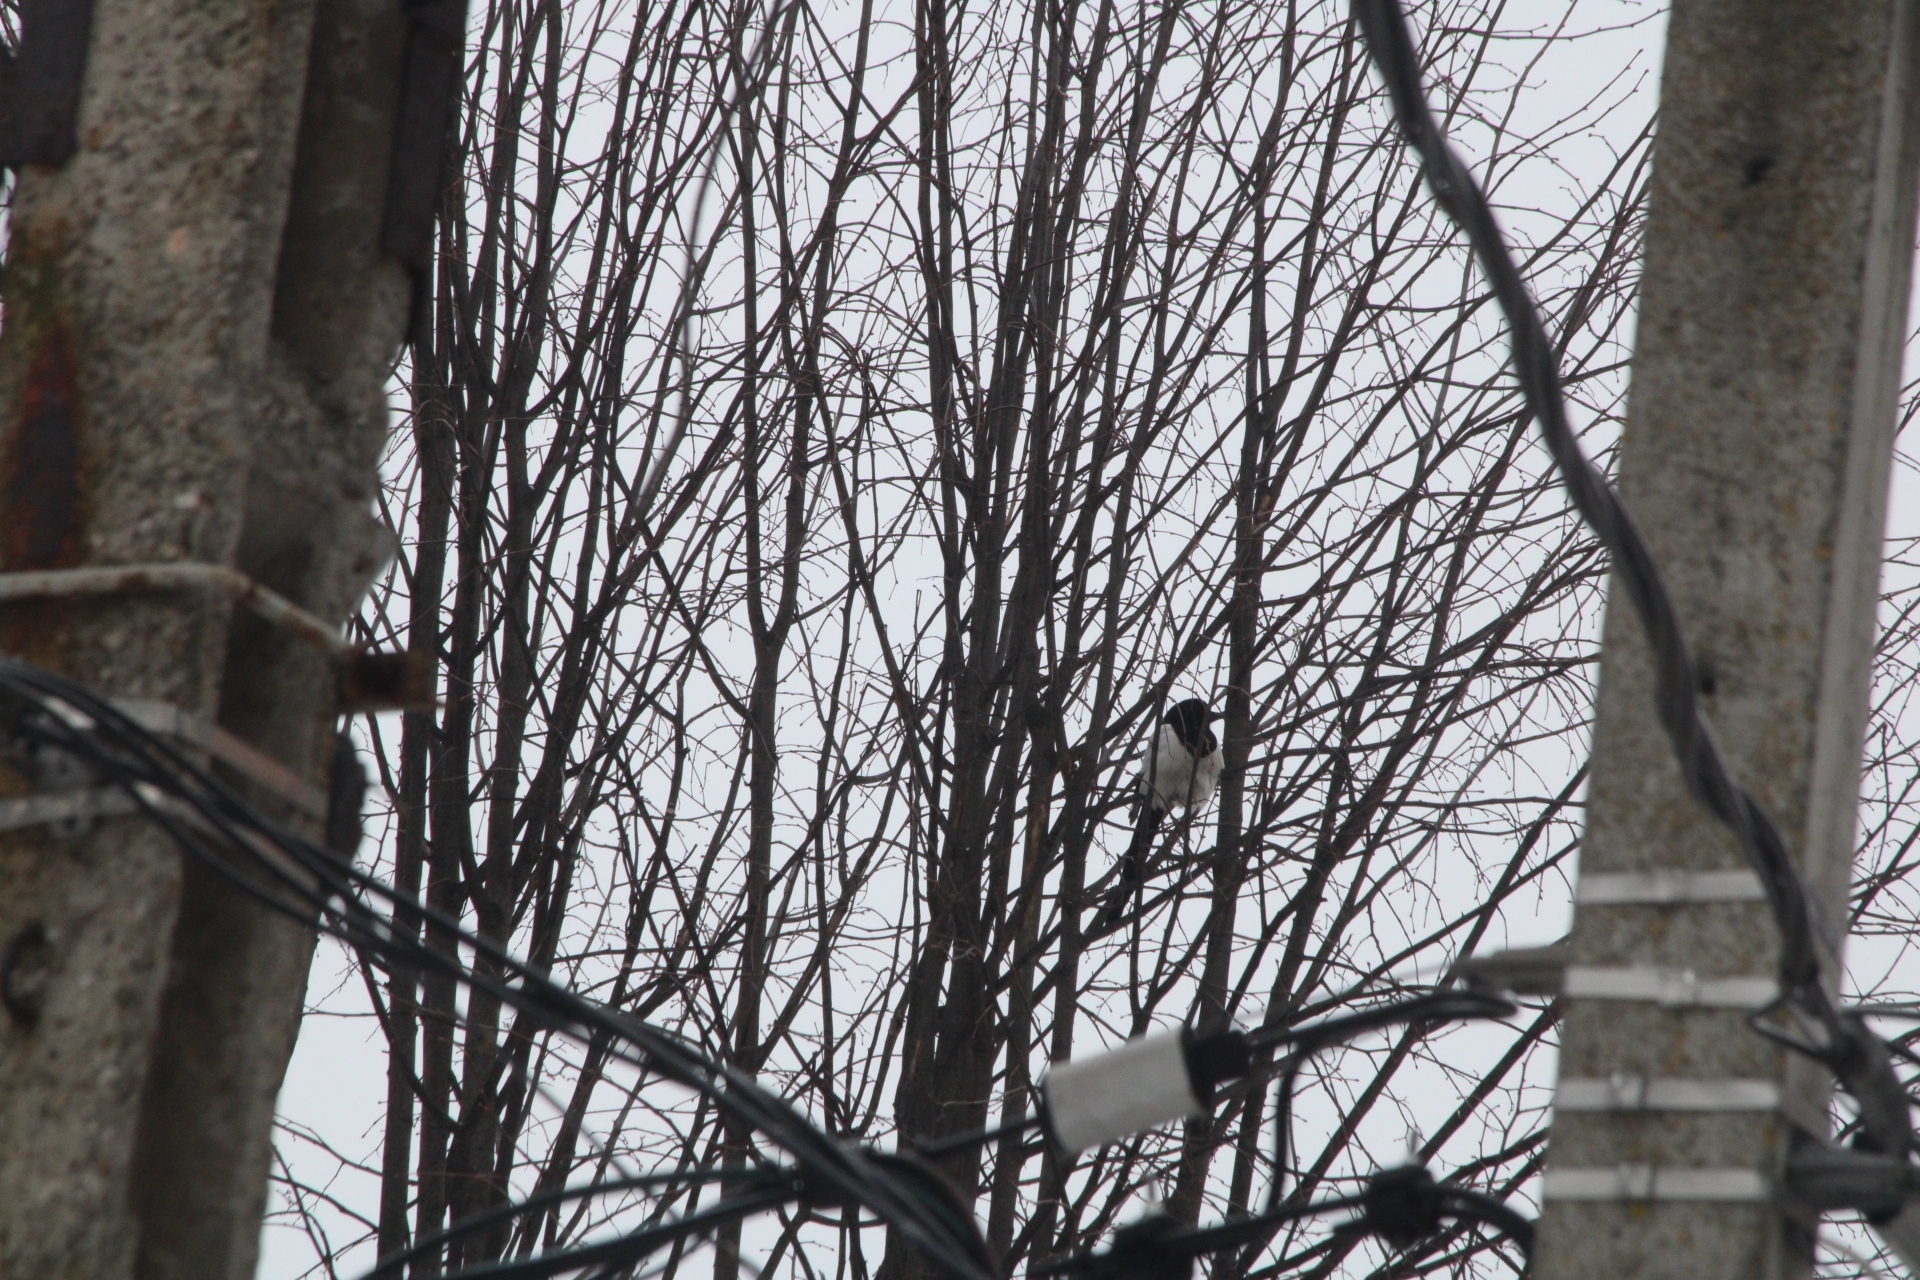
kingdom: Animalia
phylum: Chordata
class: Aves
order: Passeriformes
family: Corvidae
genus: Pica
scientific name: Pica pica
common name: Eurasian magpie
